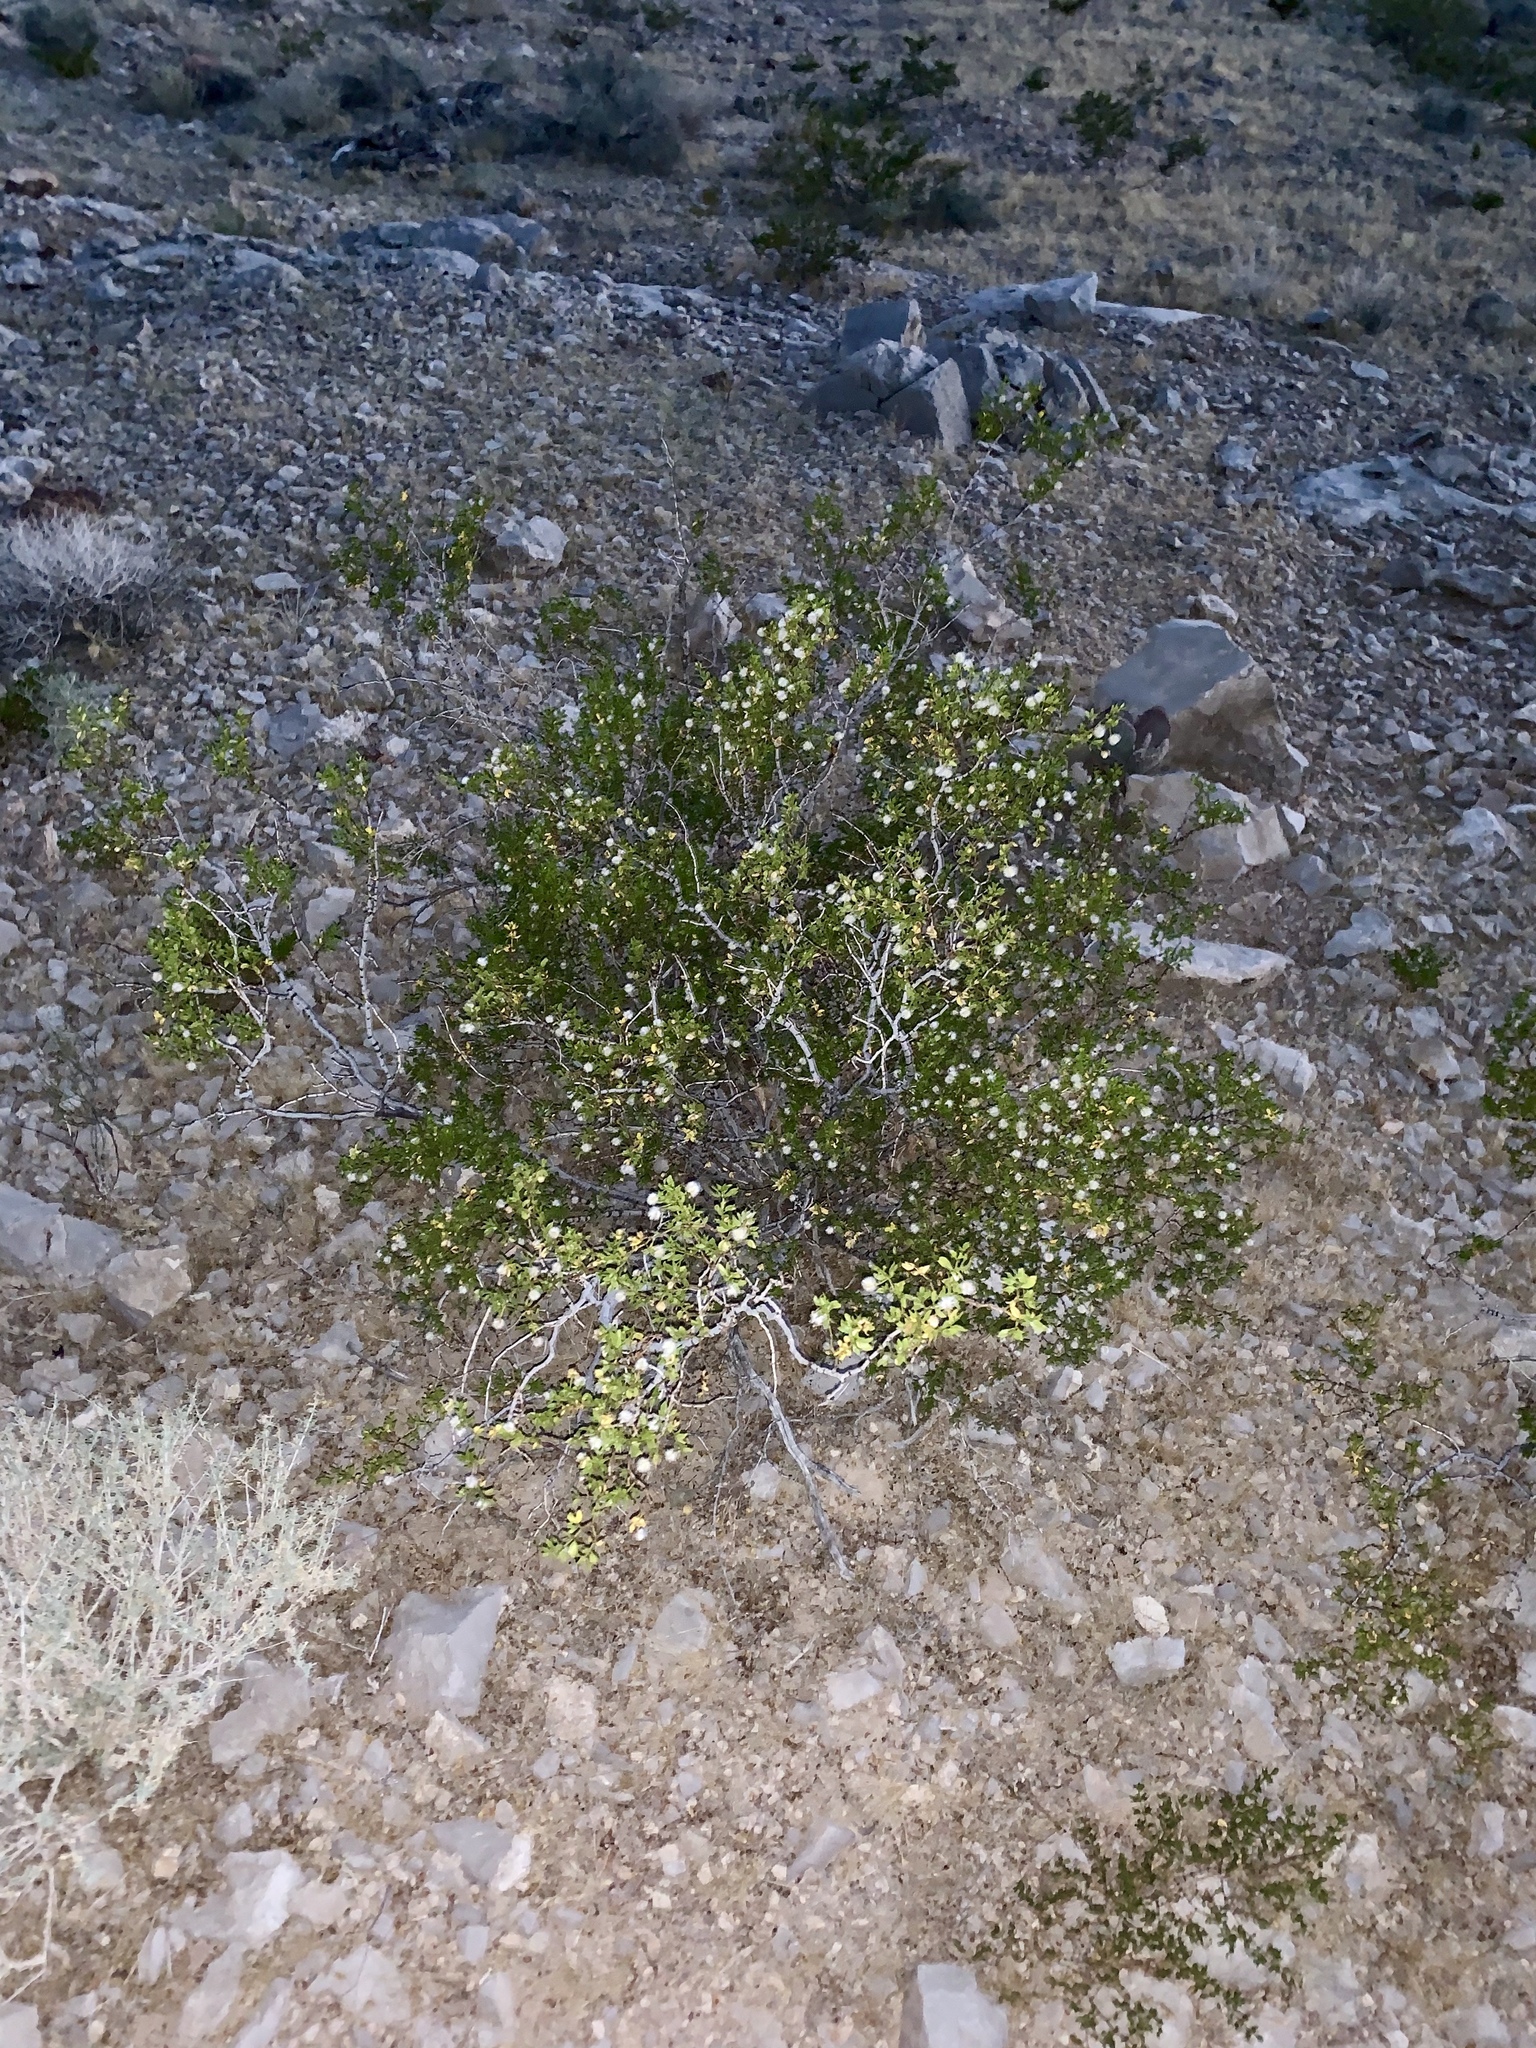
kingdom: Plantae
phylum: Tracheophyta
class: Magnoliopsida
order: Zygophyllales
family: Zygophyllaceae
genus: Larrea
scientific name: Larrea tridentata
